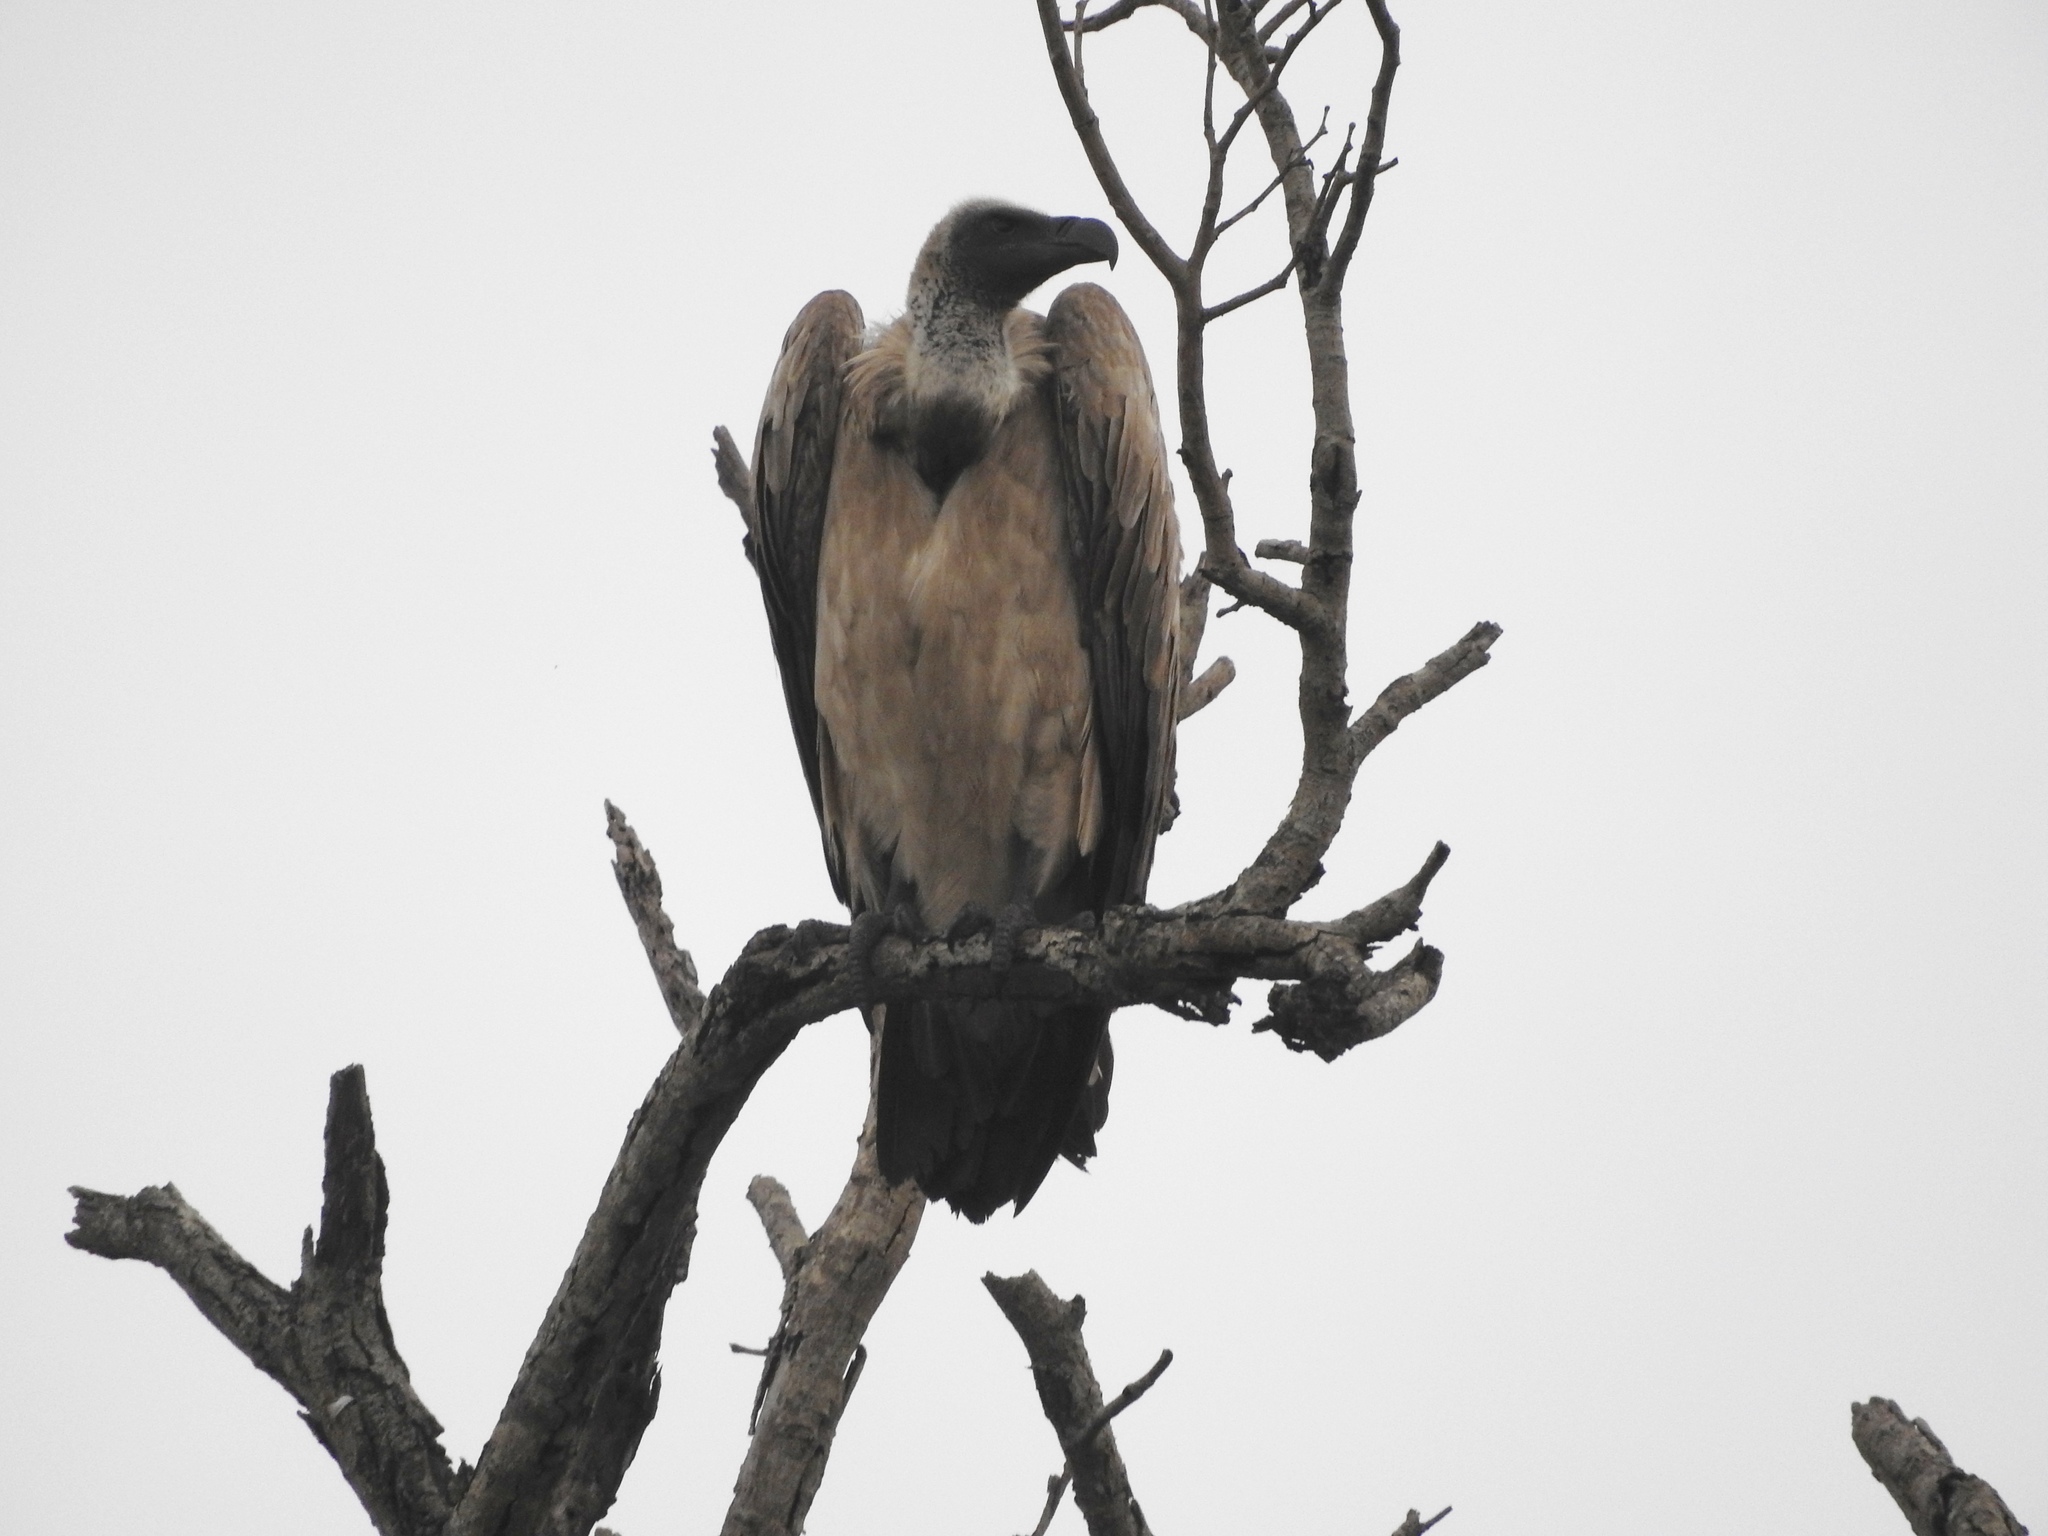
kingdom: Animalia
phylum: Chordata
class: Aves
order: Accipitriformes
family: Accipitridae
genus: Gyps
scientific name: Gyps africanus
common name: White-backed vulture
